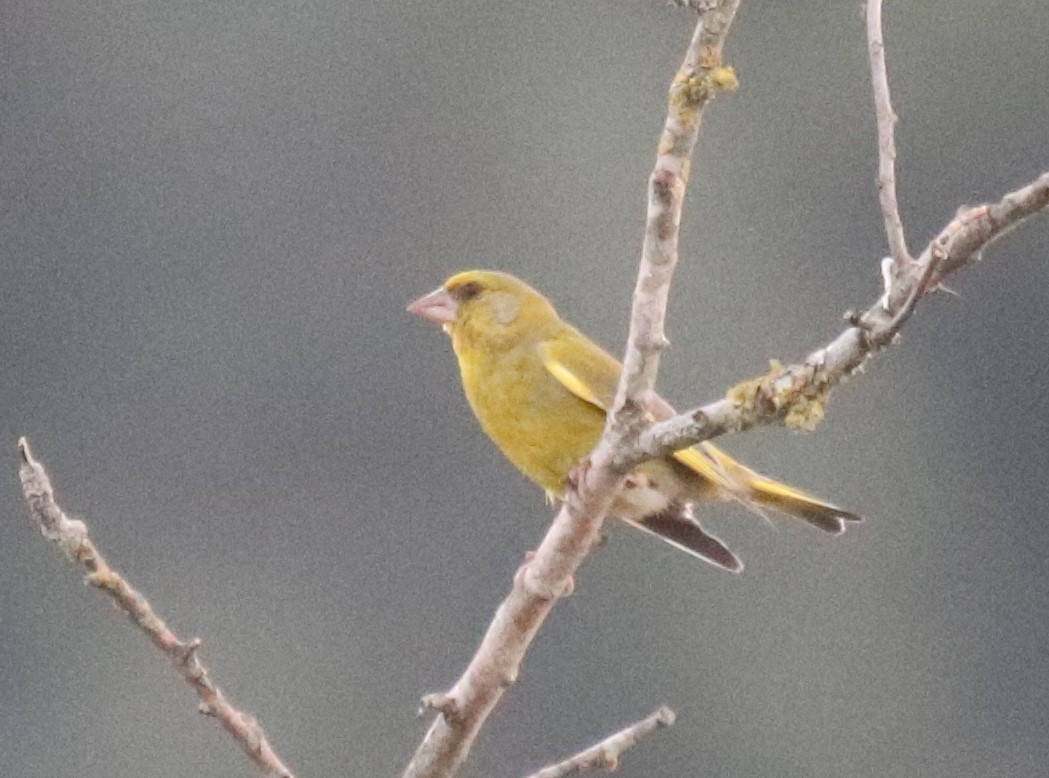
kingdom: Plantae
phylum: Tracheophyta
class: Liliopsida
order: Poales
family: Poaceae
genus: Chloris
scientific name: Chloris chloris
